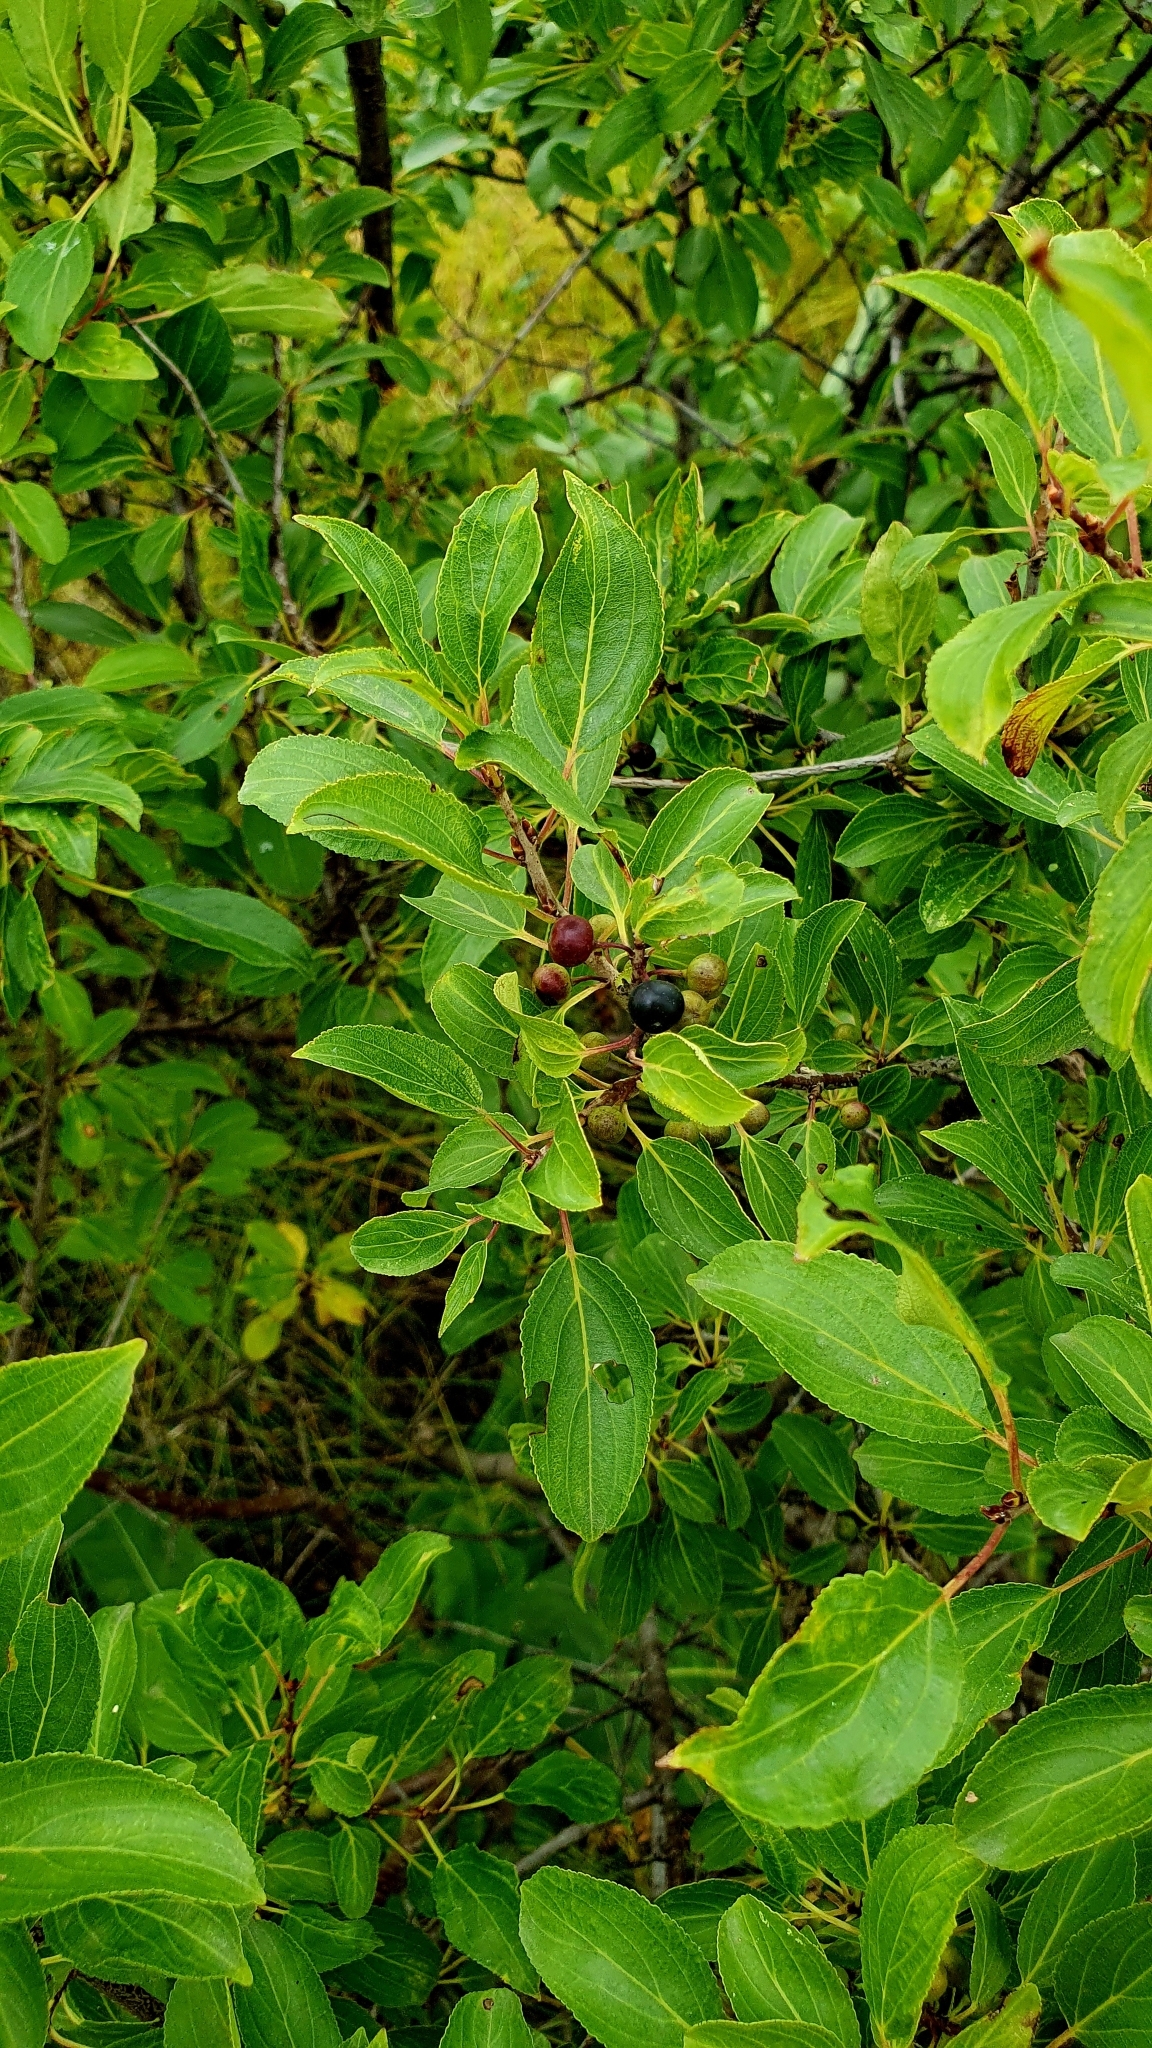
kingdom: Plantae
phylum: Tracheophyta
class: Magnoliopsida
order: Rosales
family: Rhamnaceae
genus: Rhamnus
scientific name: Rhamnus cathartica
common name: Common buckthorn
